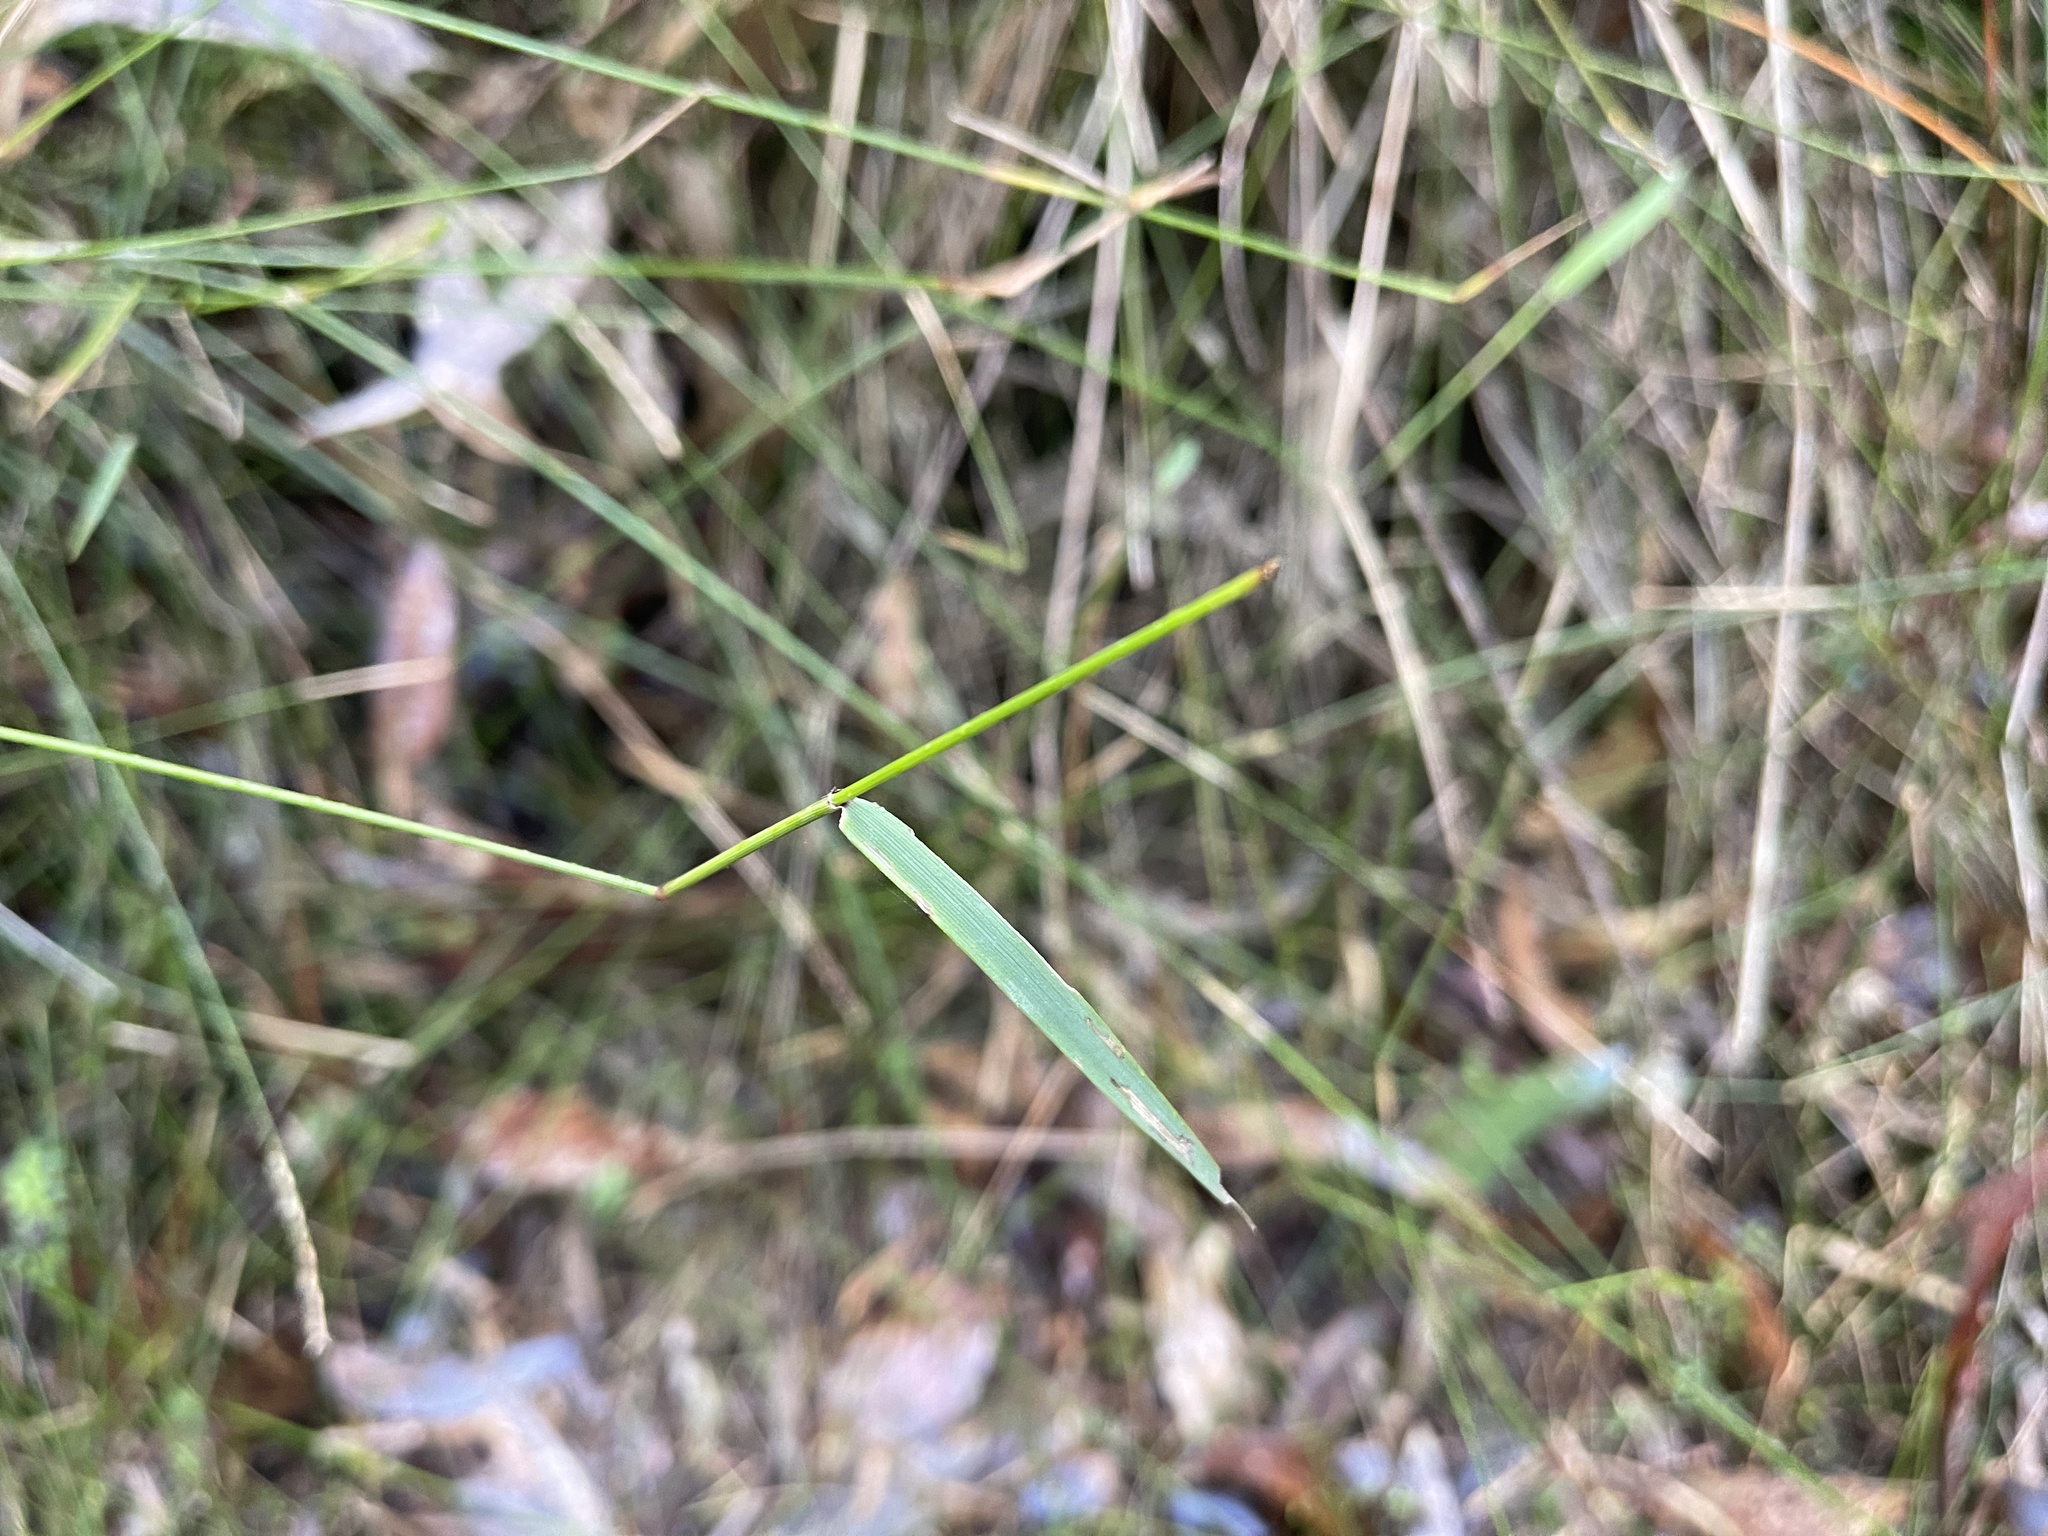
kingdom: Plantae
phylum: Tracheophyta
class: Liliopsida
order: Poales
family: Poaceae
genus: Tetrarrhena
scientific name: Tetrarrhena juncea
